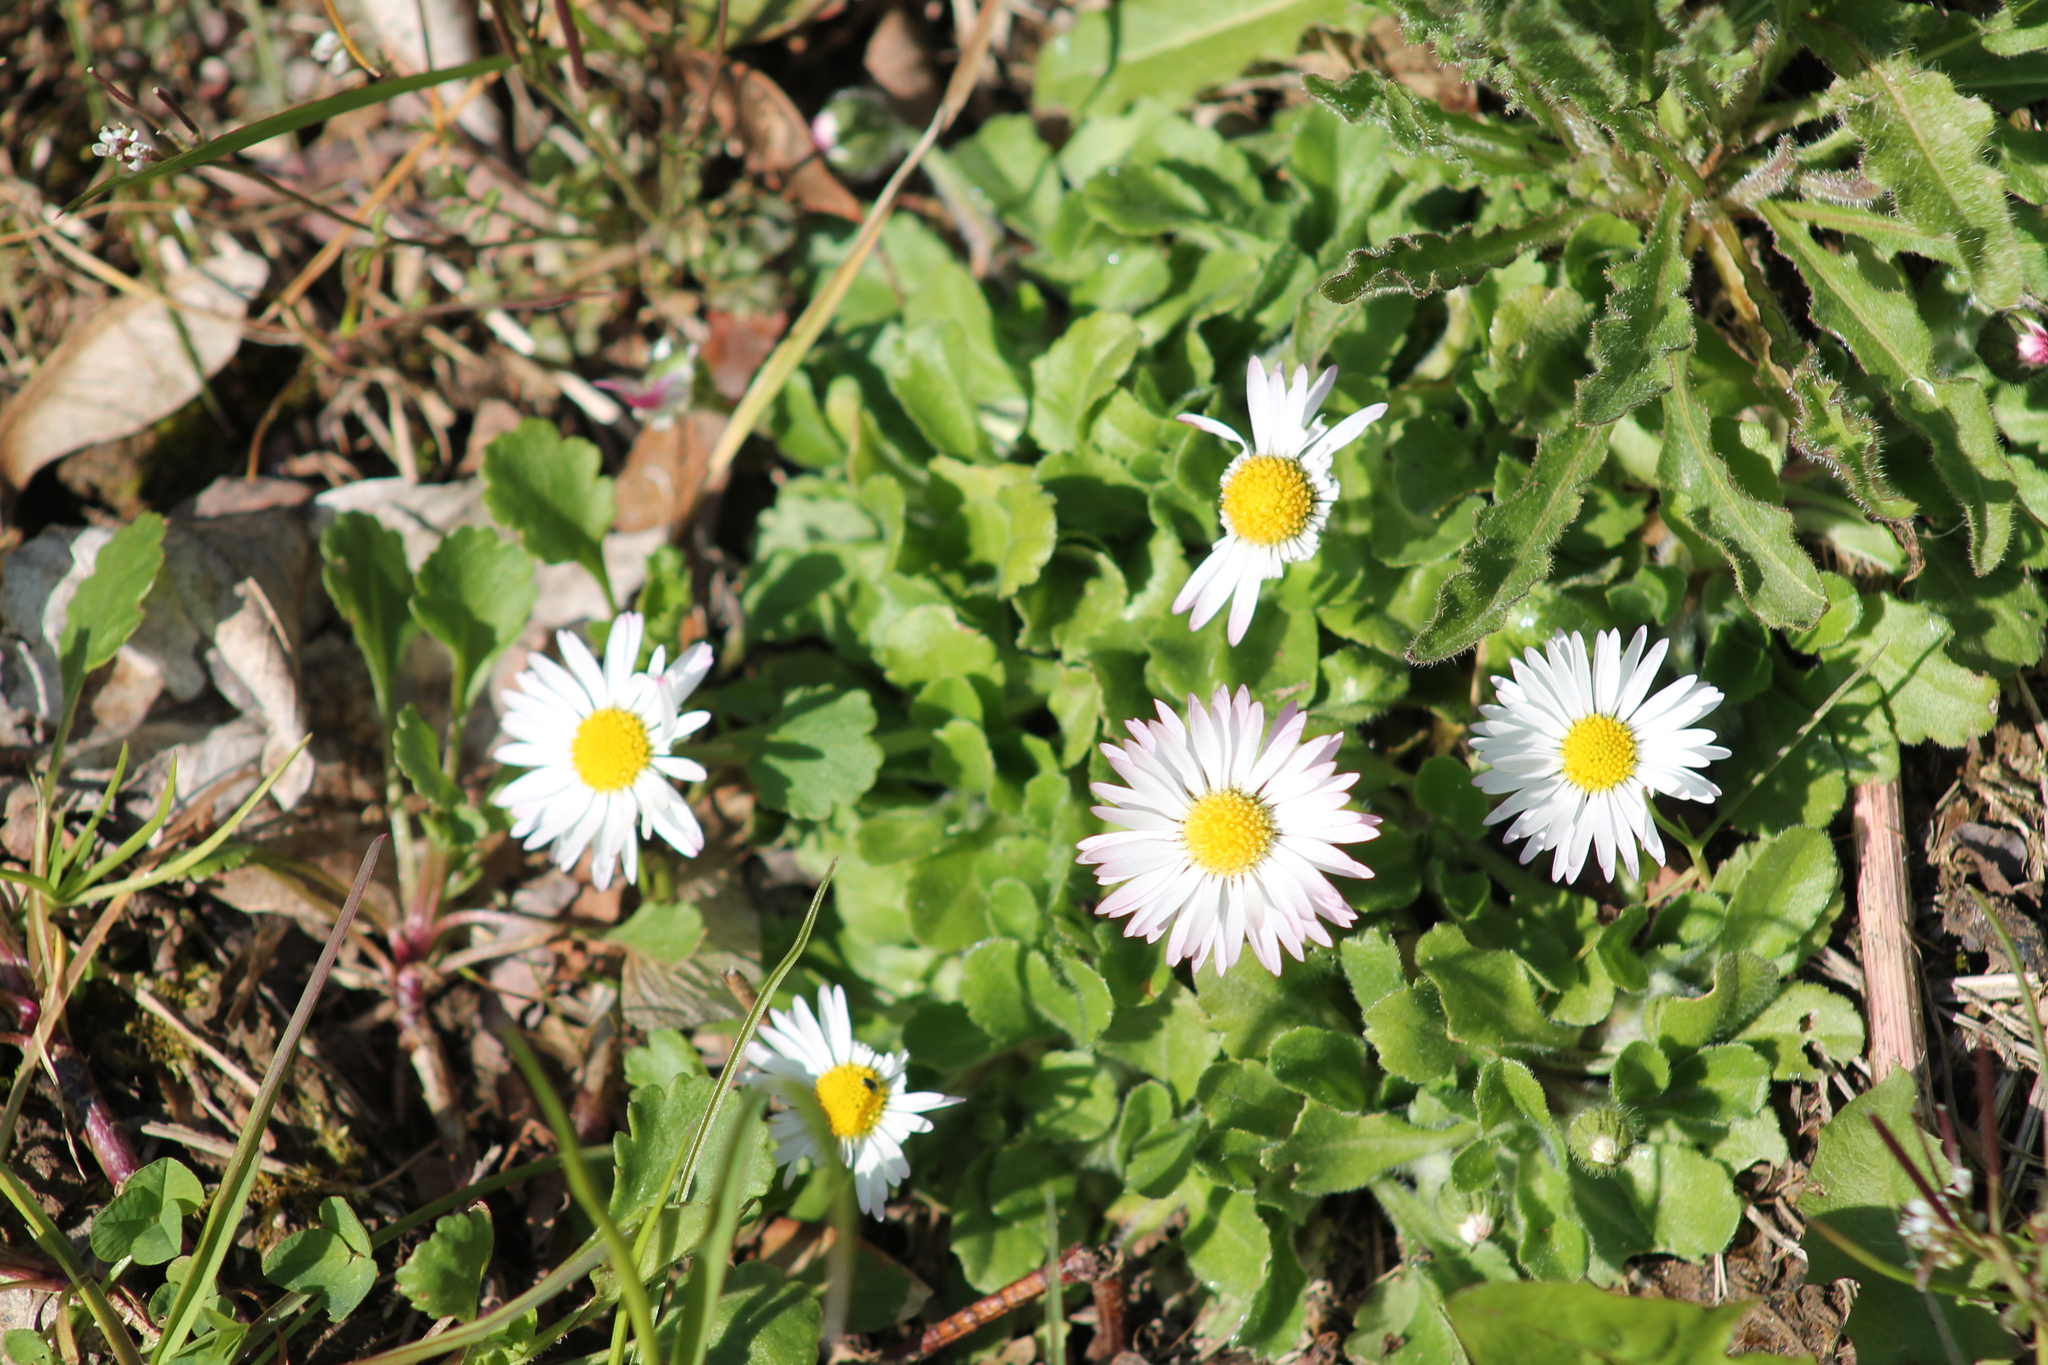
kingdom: Plantae
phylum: Tracheophyta
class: Magnoliopsida
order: Asterales
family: Asteraceae
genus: Bellis
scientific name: Bellis perennis
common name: Lawndaisy
